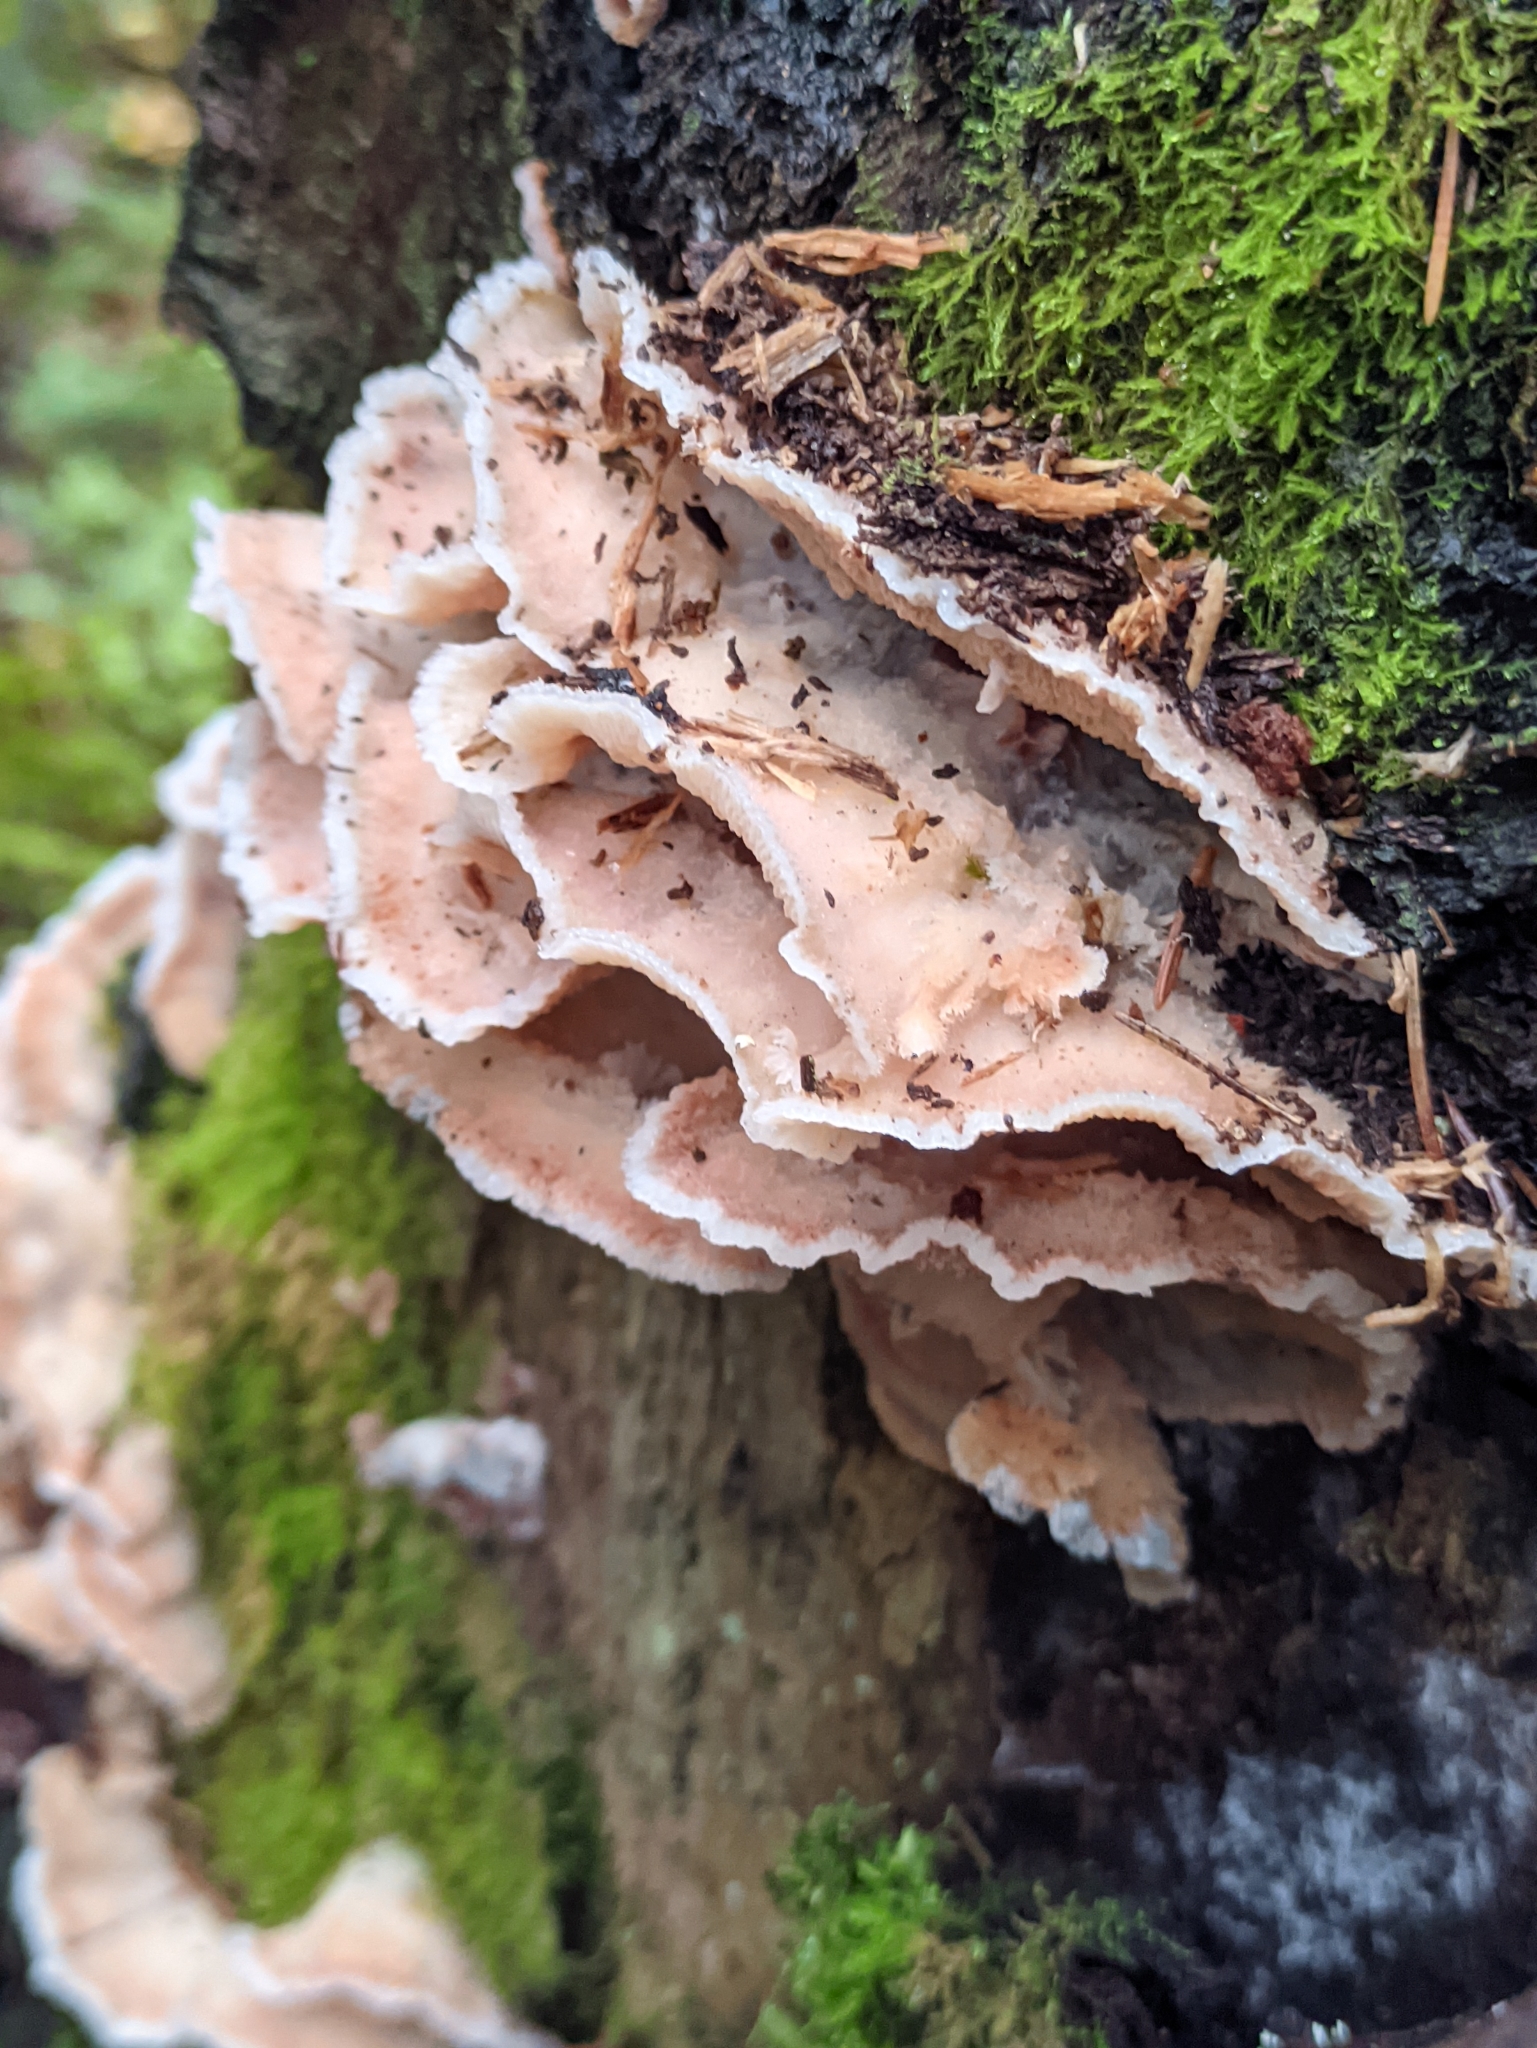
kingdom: Fungi
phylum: Basidiomycota
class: Agaricomycetes
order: Polyporales
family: Meruliaceae
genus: Phlebia
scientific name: Phlebia tremellosa
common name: Jelly rot
